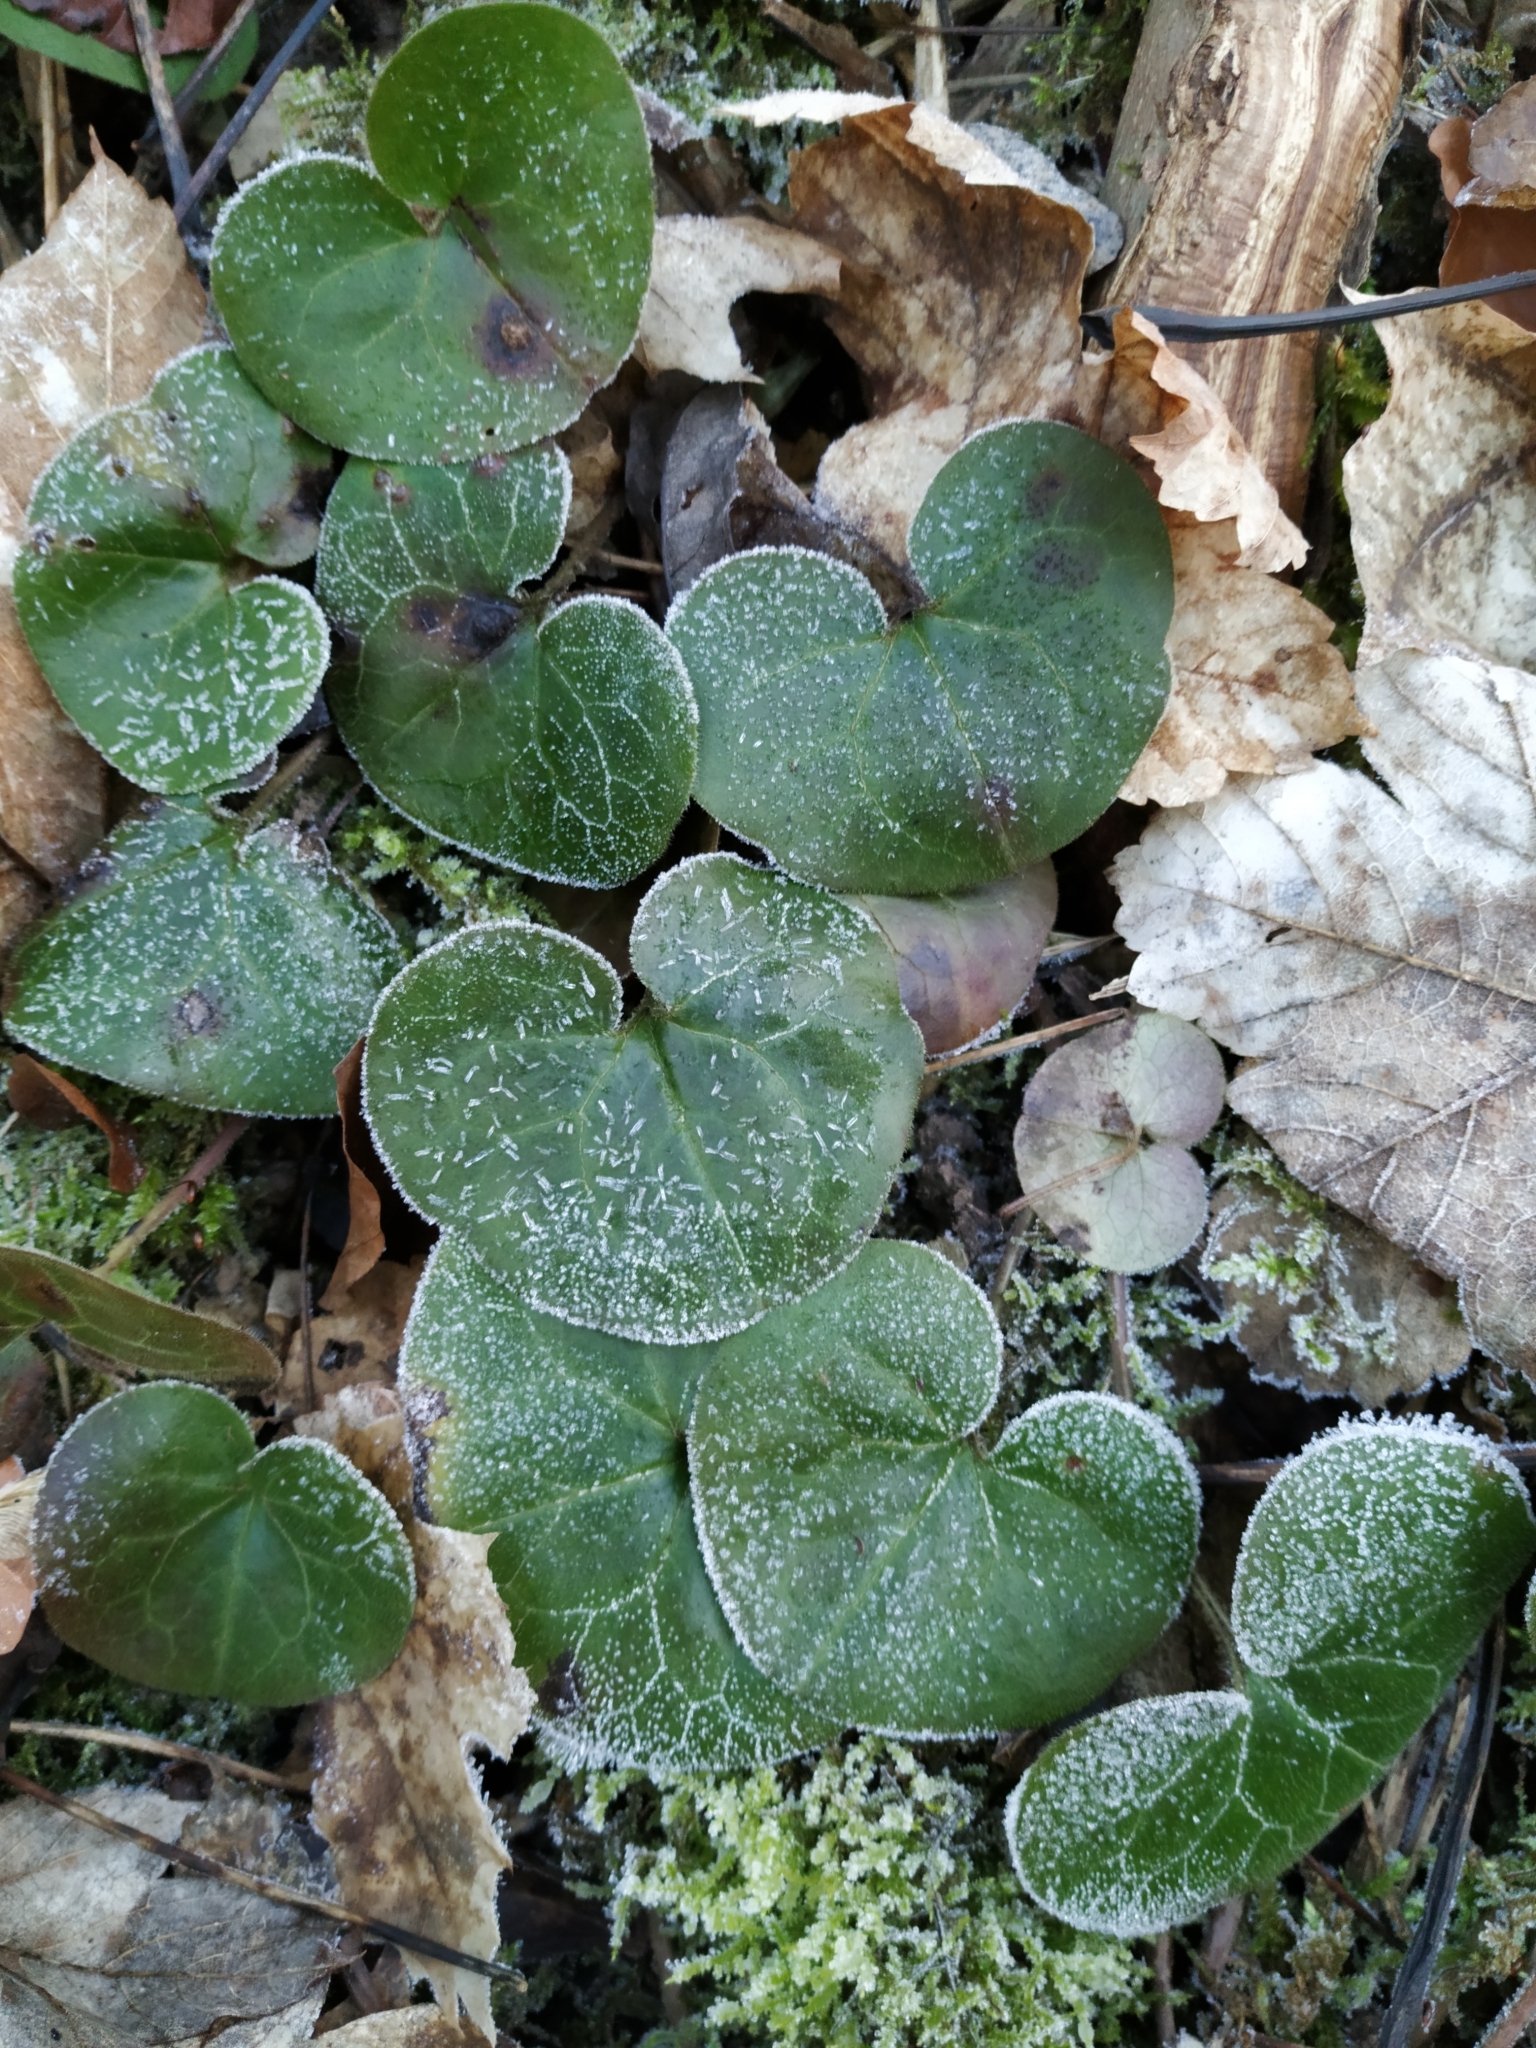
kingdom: Plantae
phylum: Tracheophyta
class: Magnoliopsida
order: Piperales
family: Aristolochiaceae
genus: Asarum
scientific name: Asarum europaeum
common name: Asarabacca
